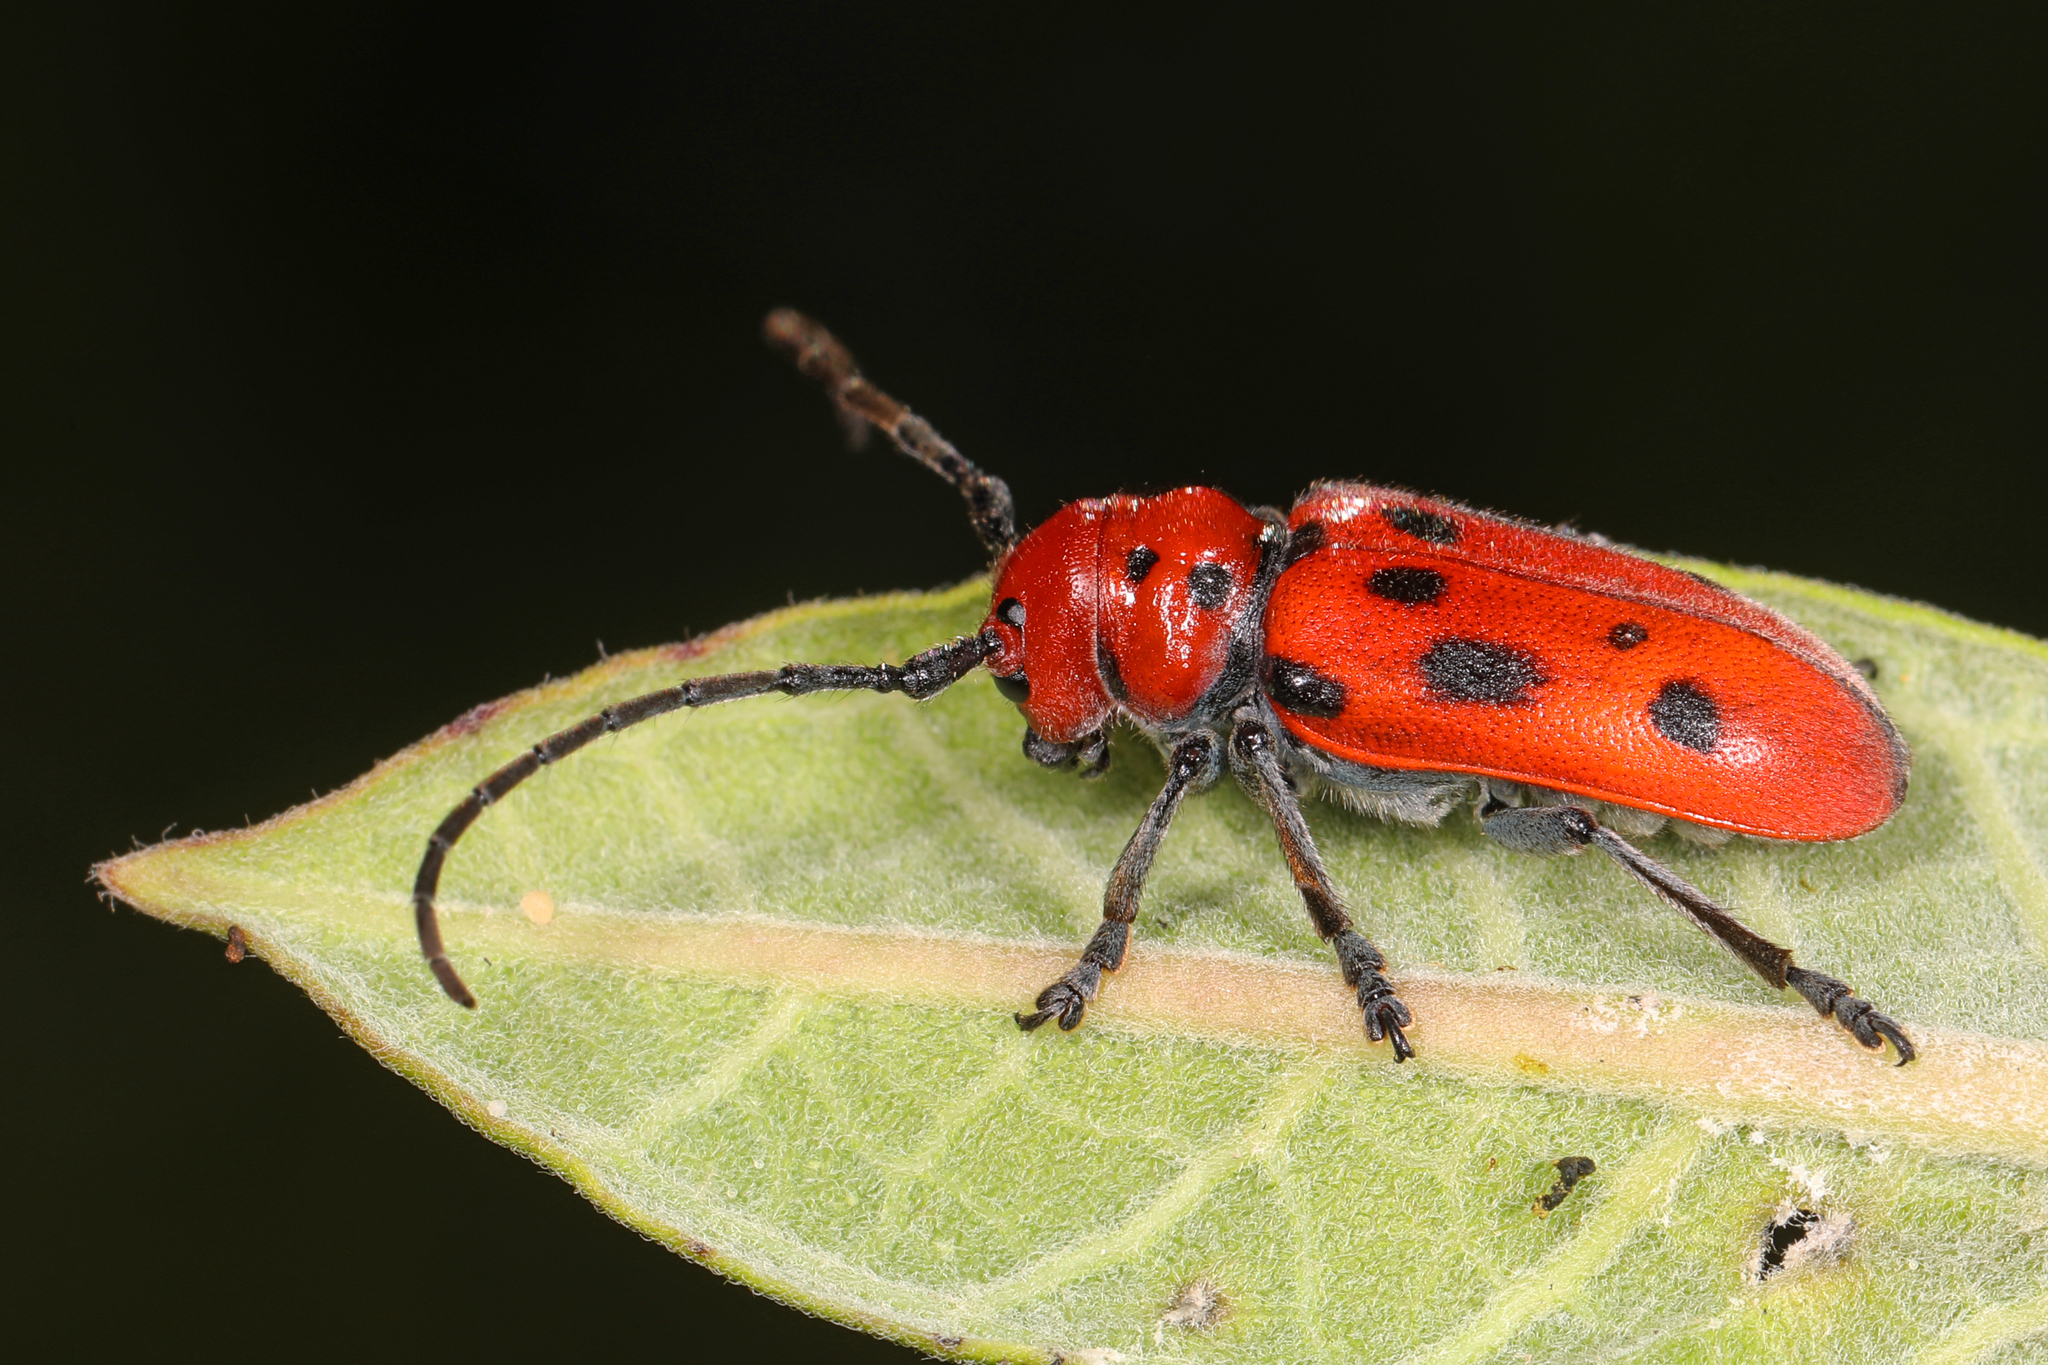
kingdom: Animalia
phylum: Arthropoda
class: Insecta
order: Coleoptera
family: Cerambycidae
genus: Tetraopes
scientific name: Tetraopes tetrophthalmus
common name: Red milkweed beetle
